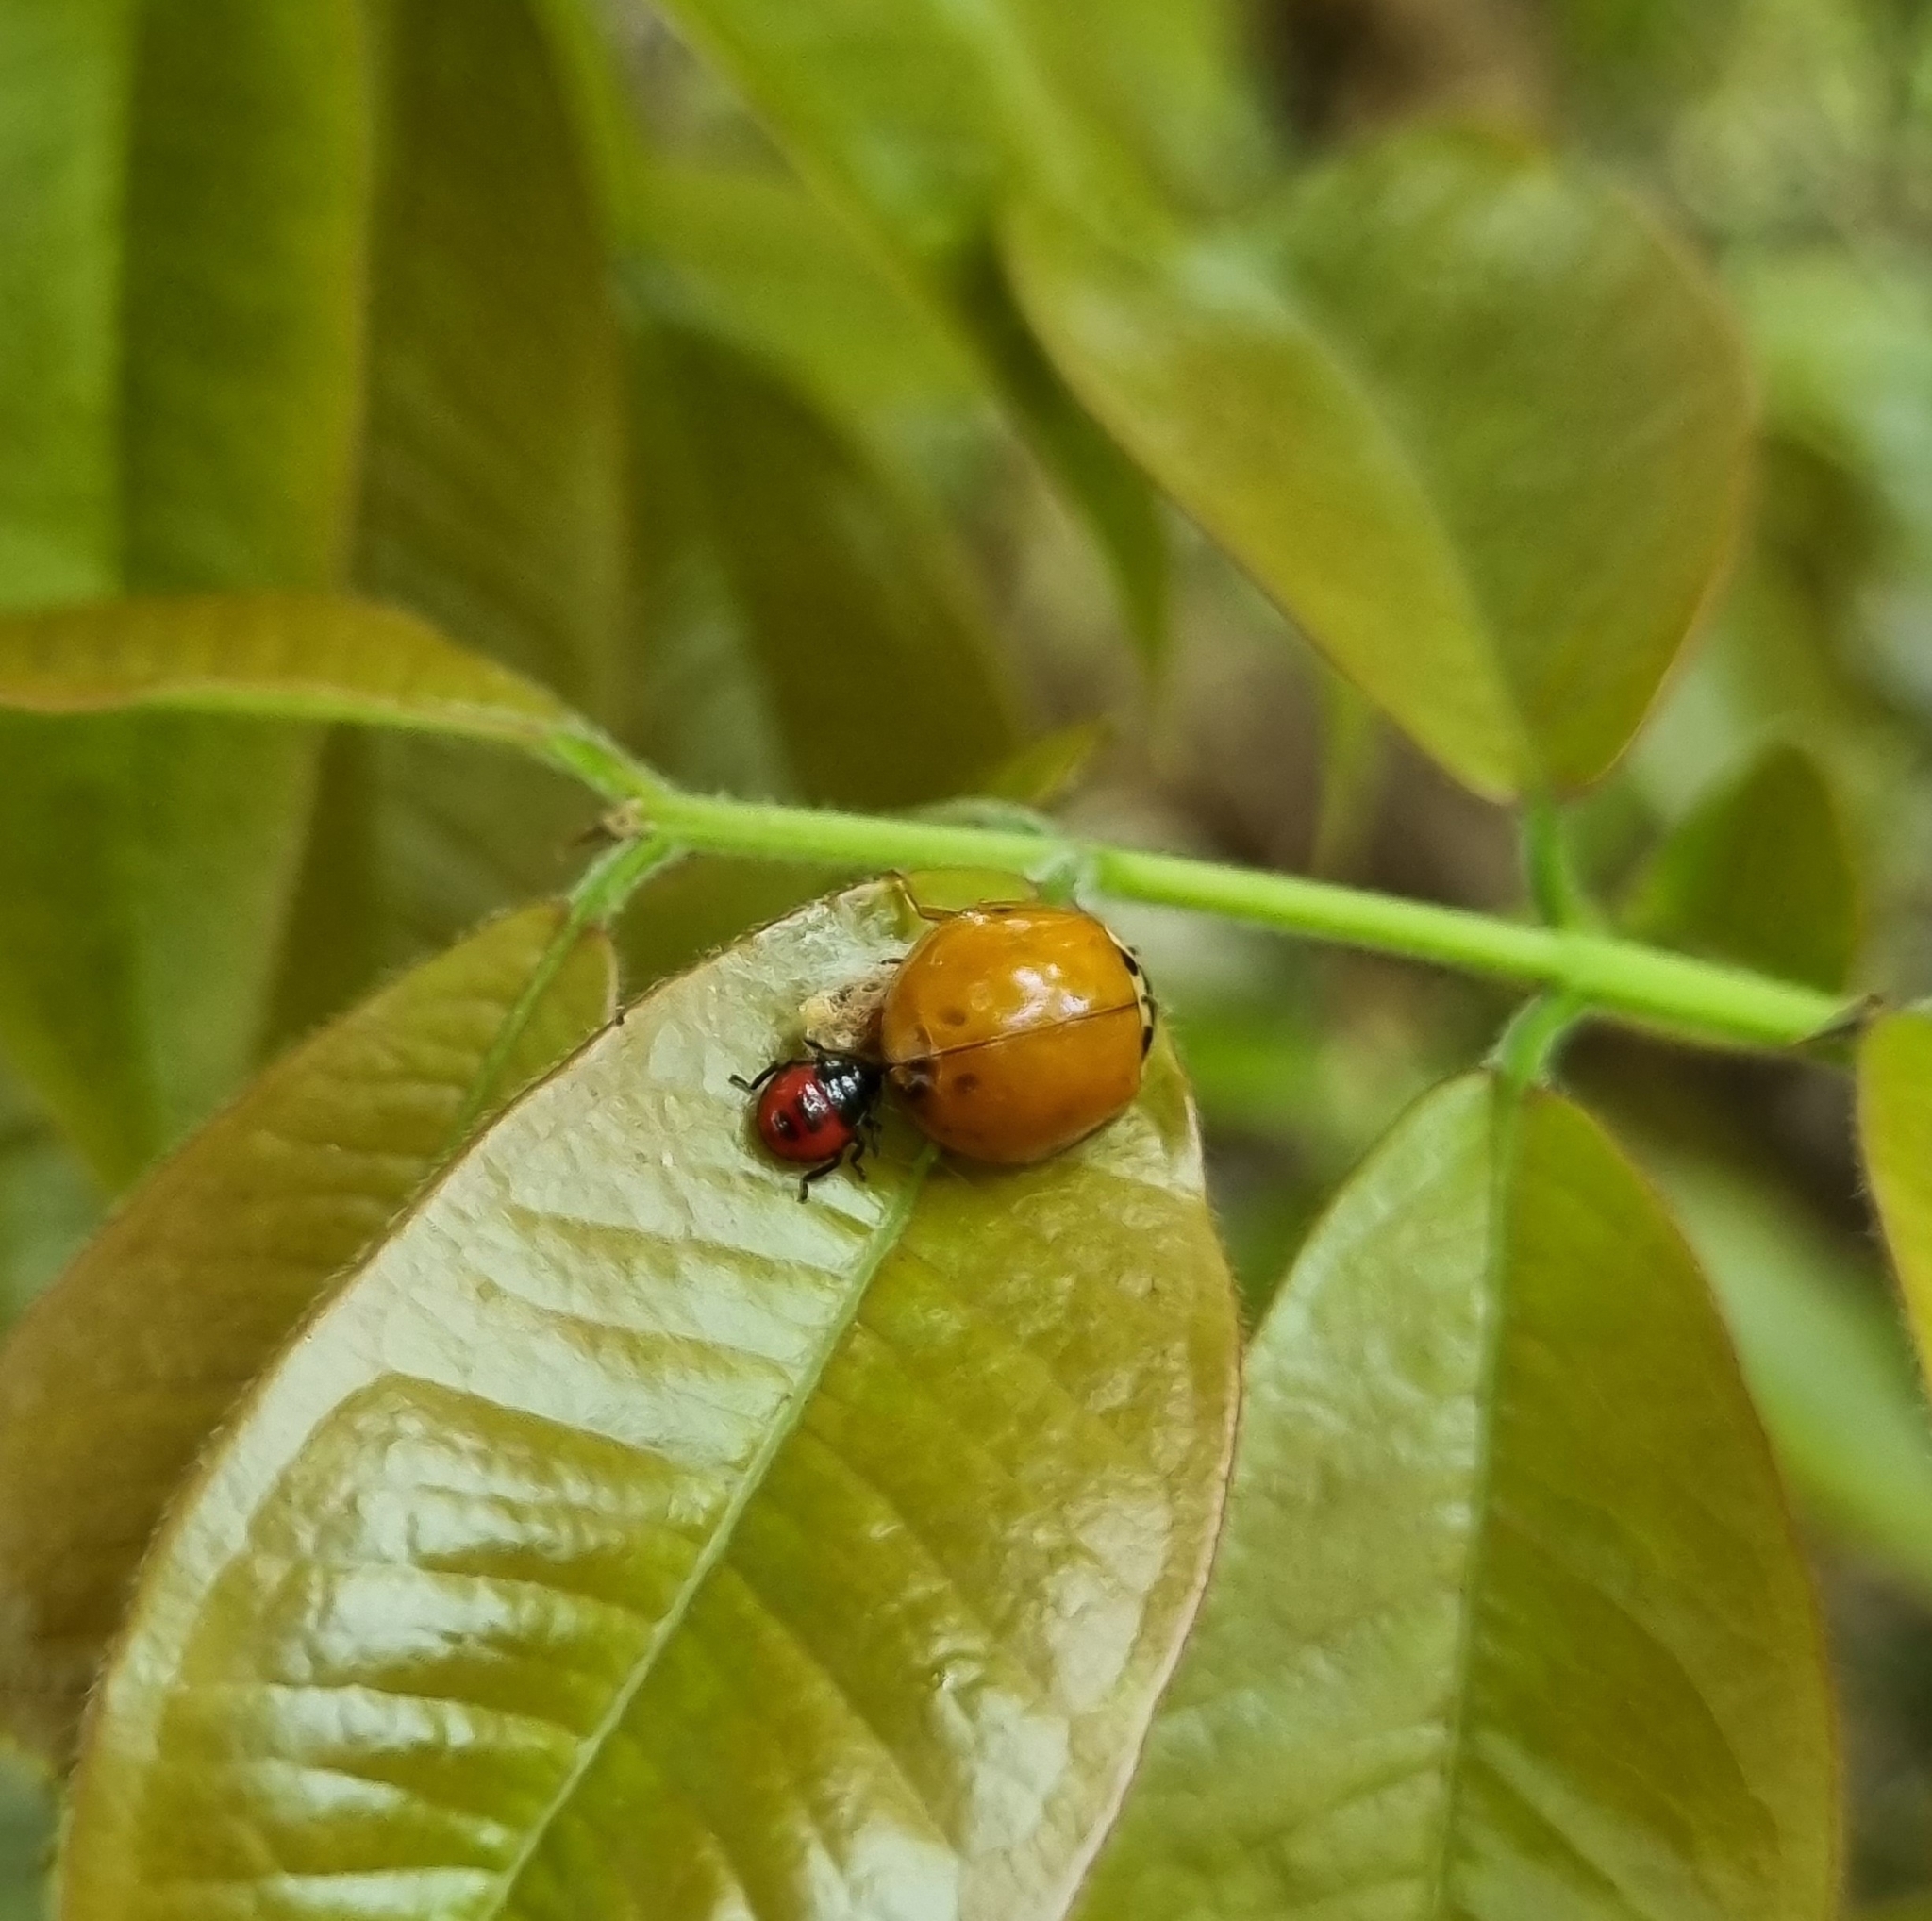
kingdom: Animalia
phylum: Arthropoda
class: Insecta
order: Coleoptera
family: Coccinellidae
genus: Harmonia
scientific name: Harmonia axyridis
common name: Harlequin ladybird
